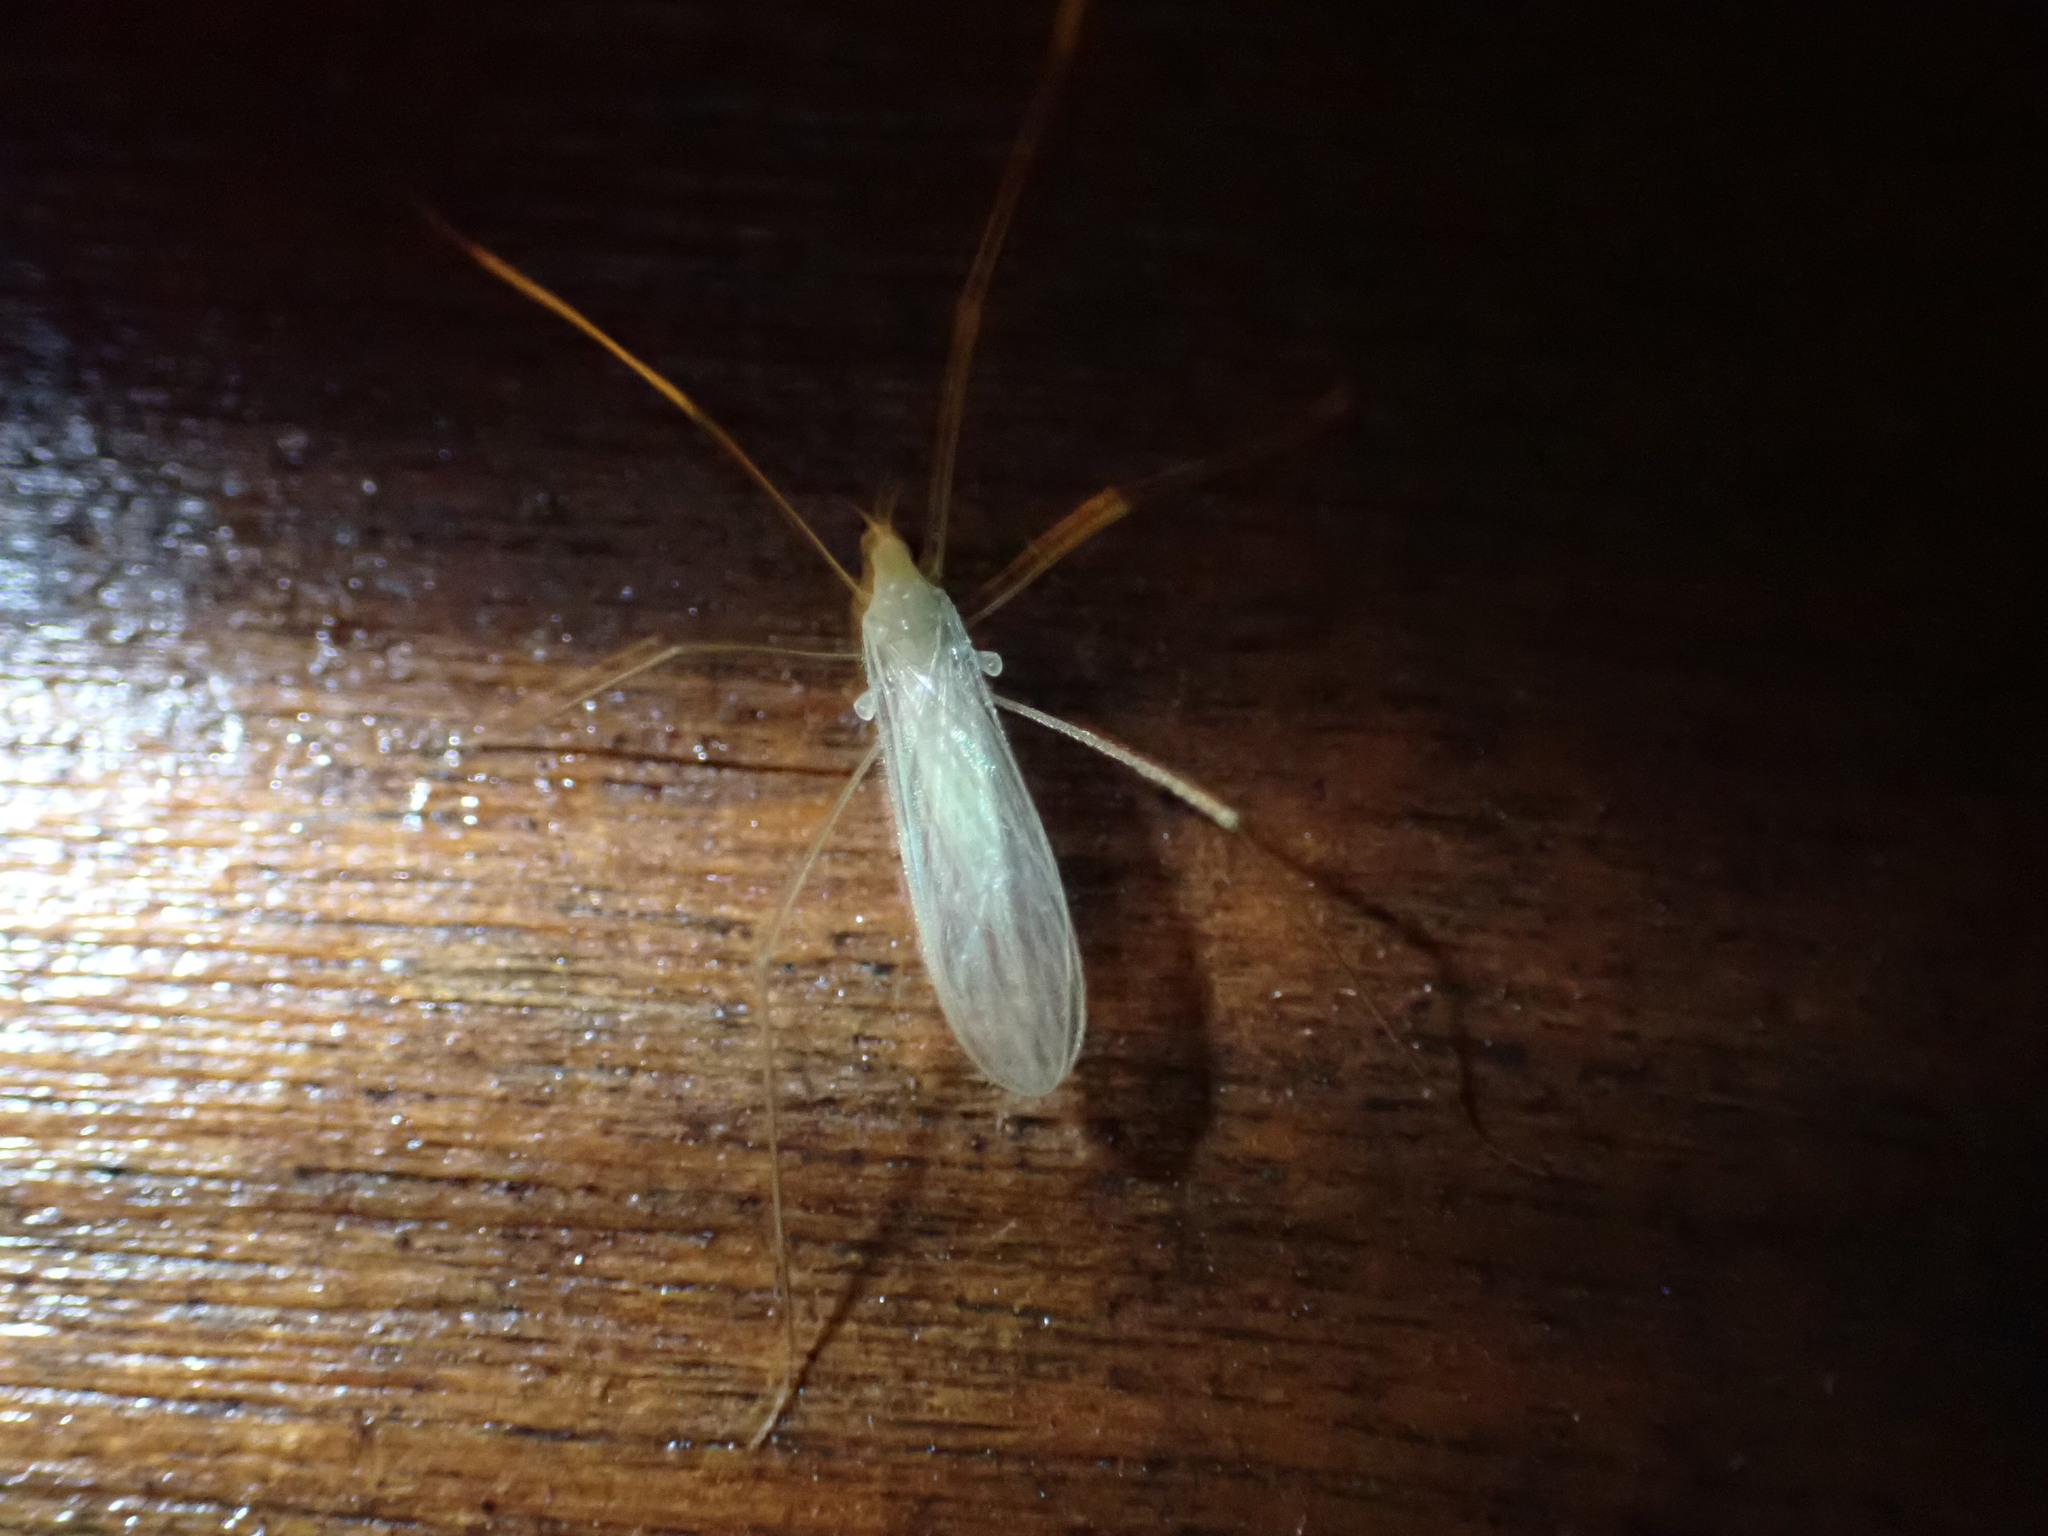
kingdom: Animalia
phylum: Arthropoda
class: Insecta
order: Diptera
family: Limoniidae
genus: Erioptera
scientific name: Erioptera
